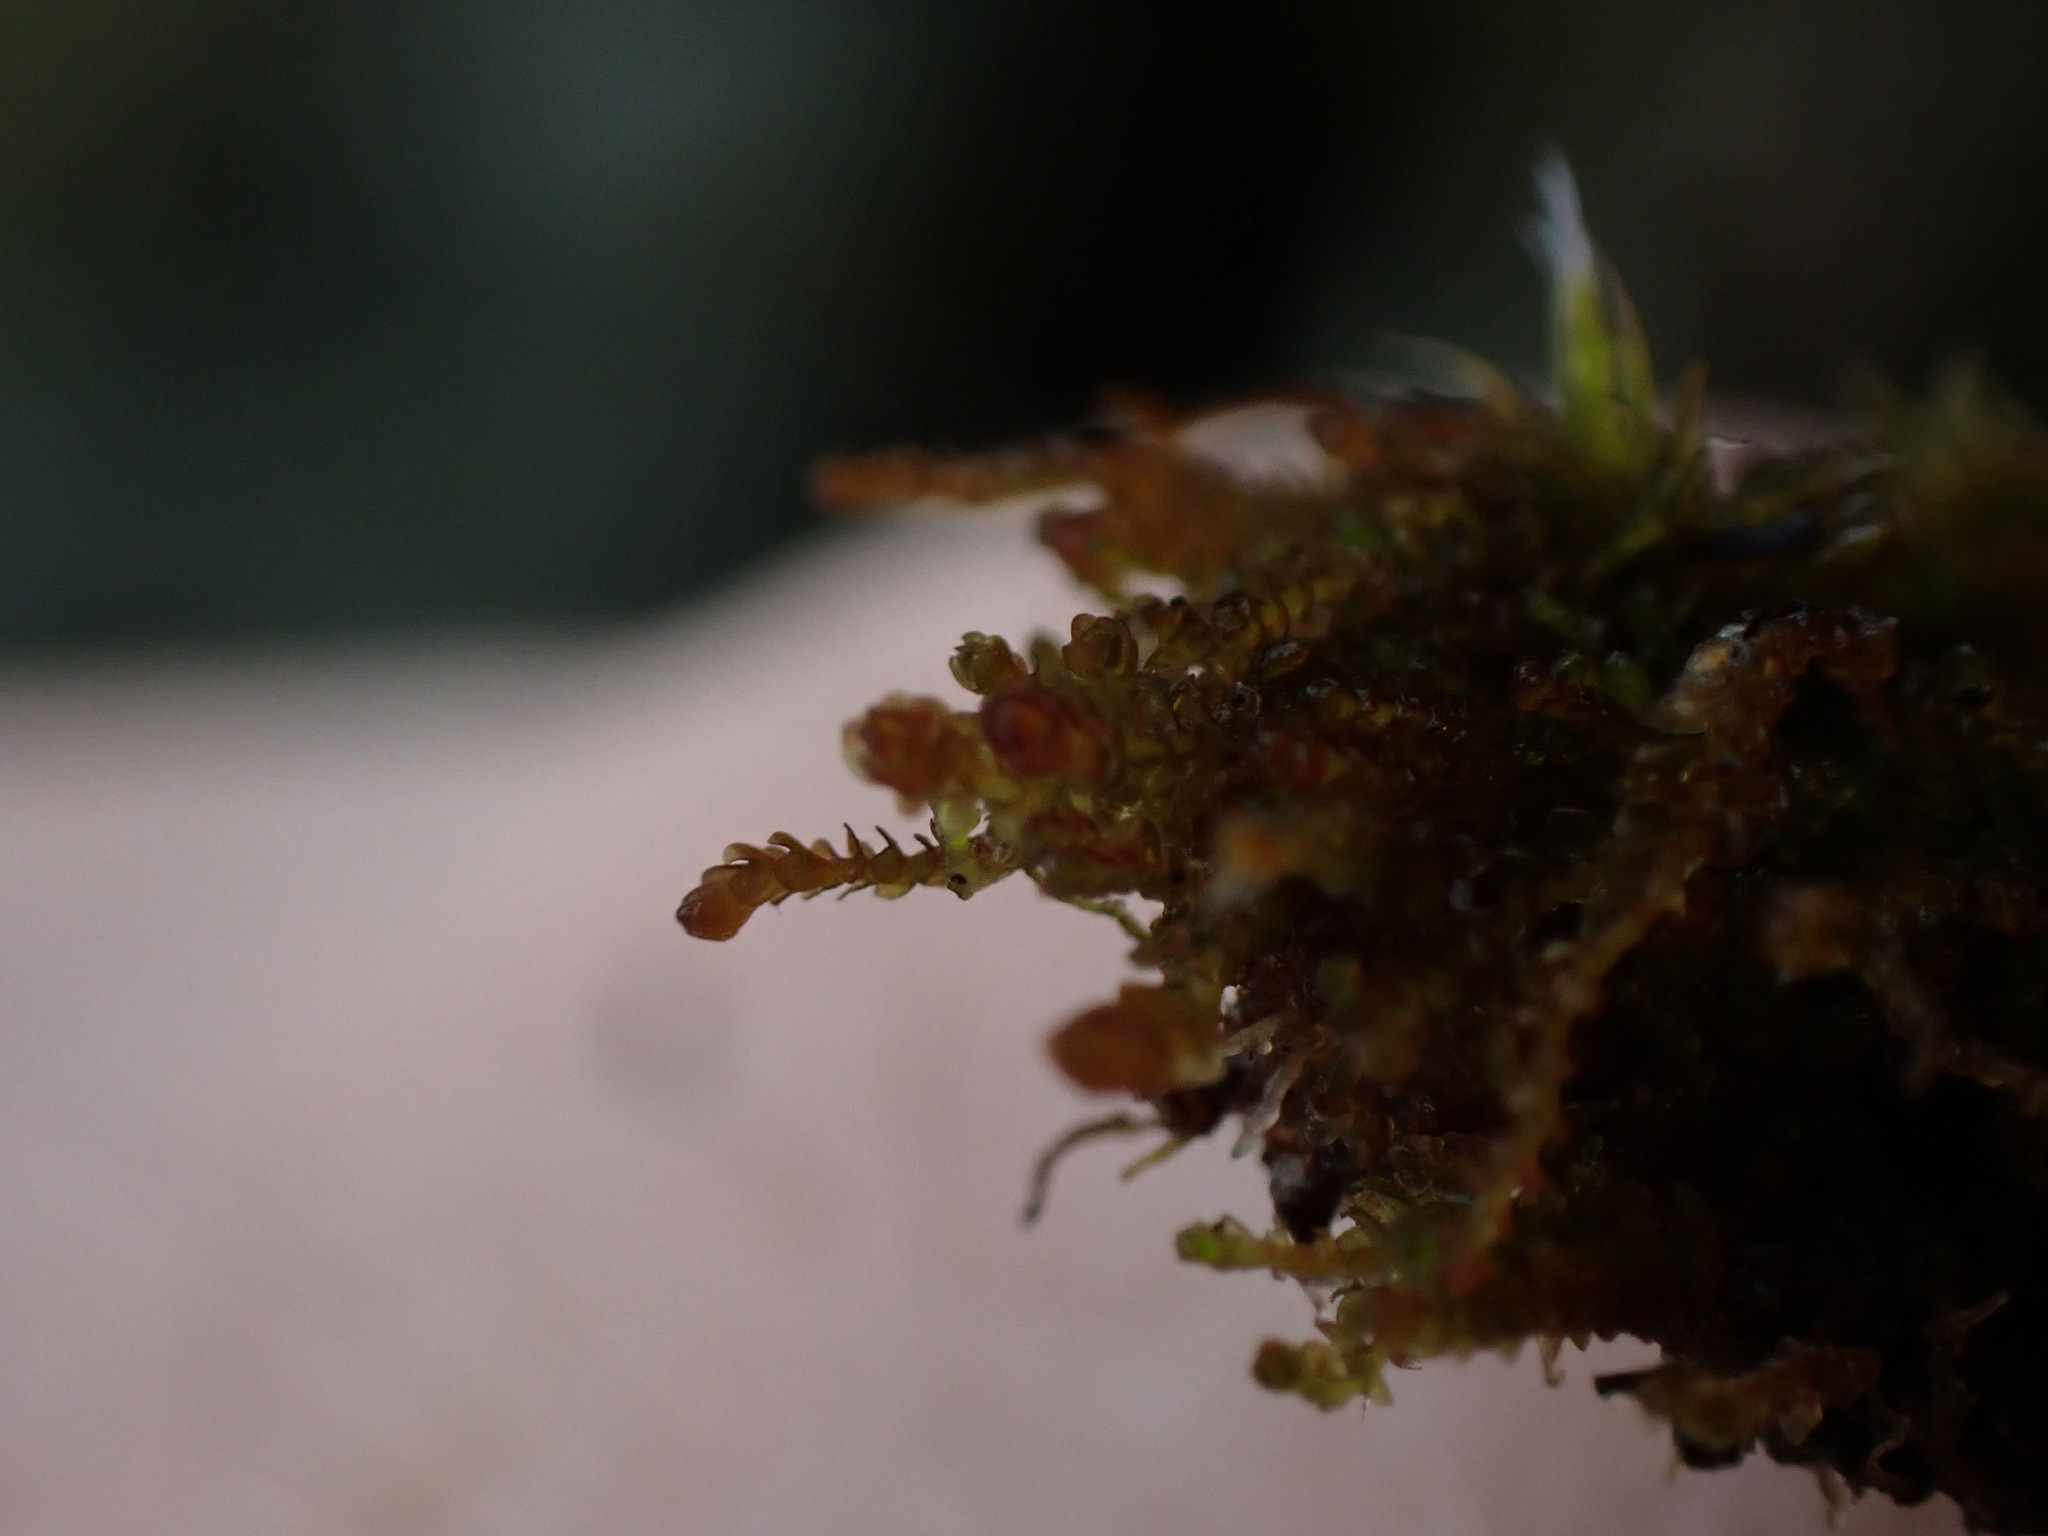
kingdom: Plantae
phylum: Marchantiophyta
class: Jungermanniopsida
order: Jungermanniales
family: Gymnomitriaceae
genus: Marsupella
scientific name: Marsupella emarginata
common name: Notched rustwort
